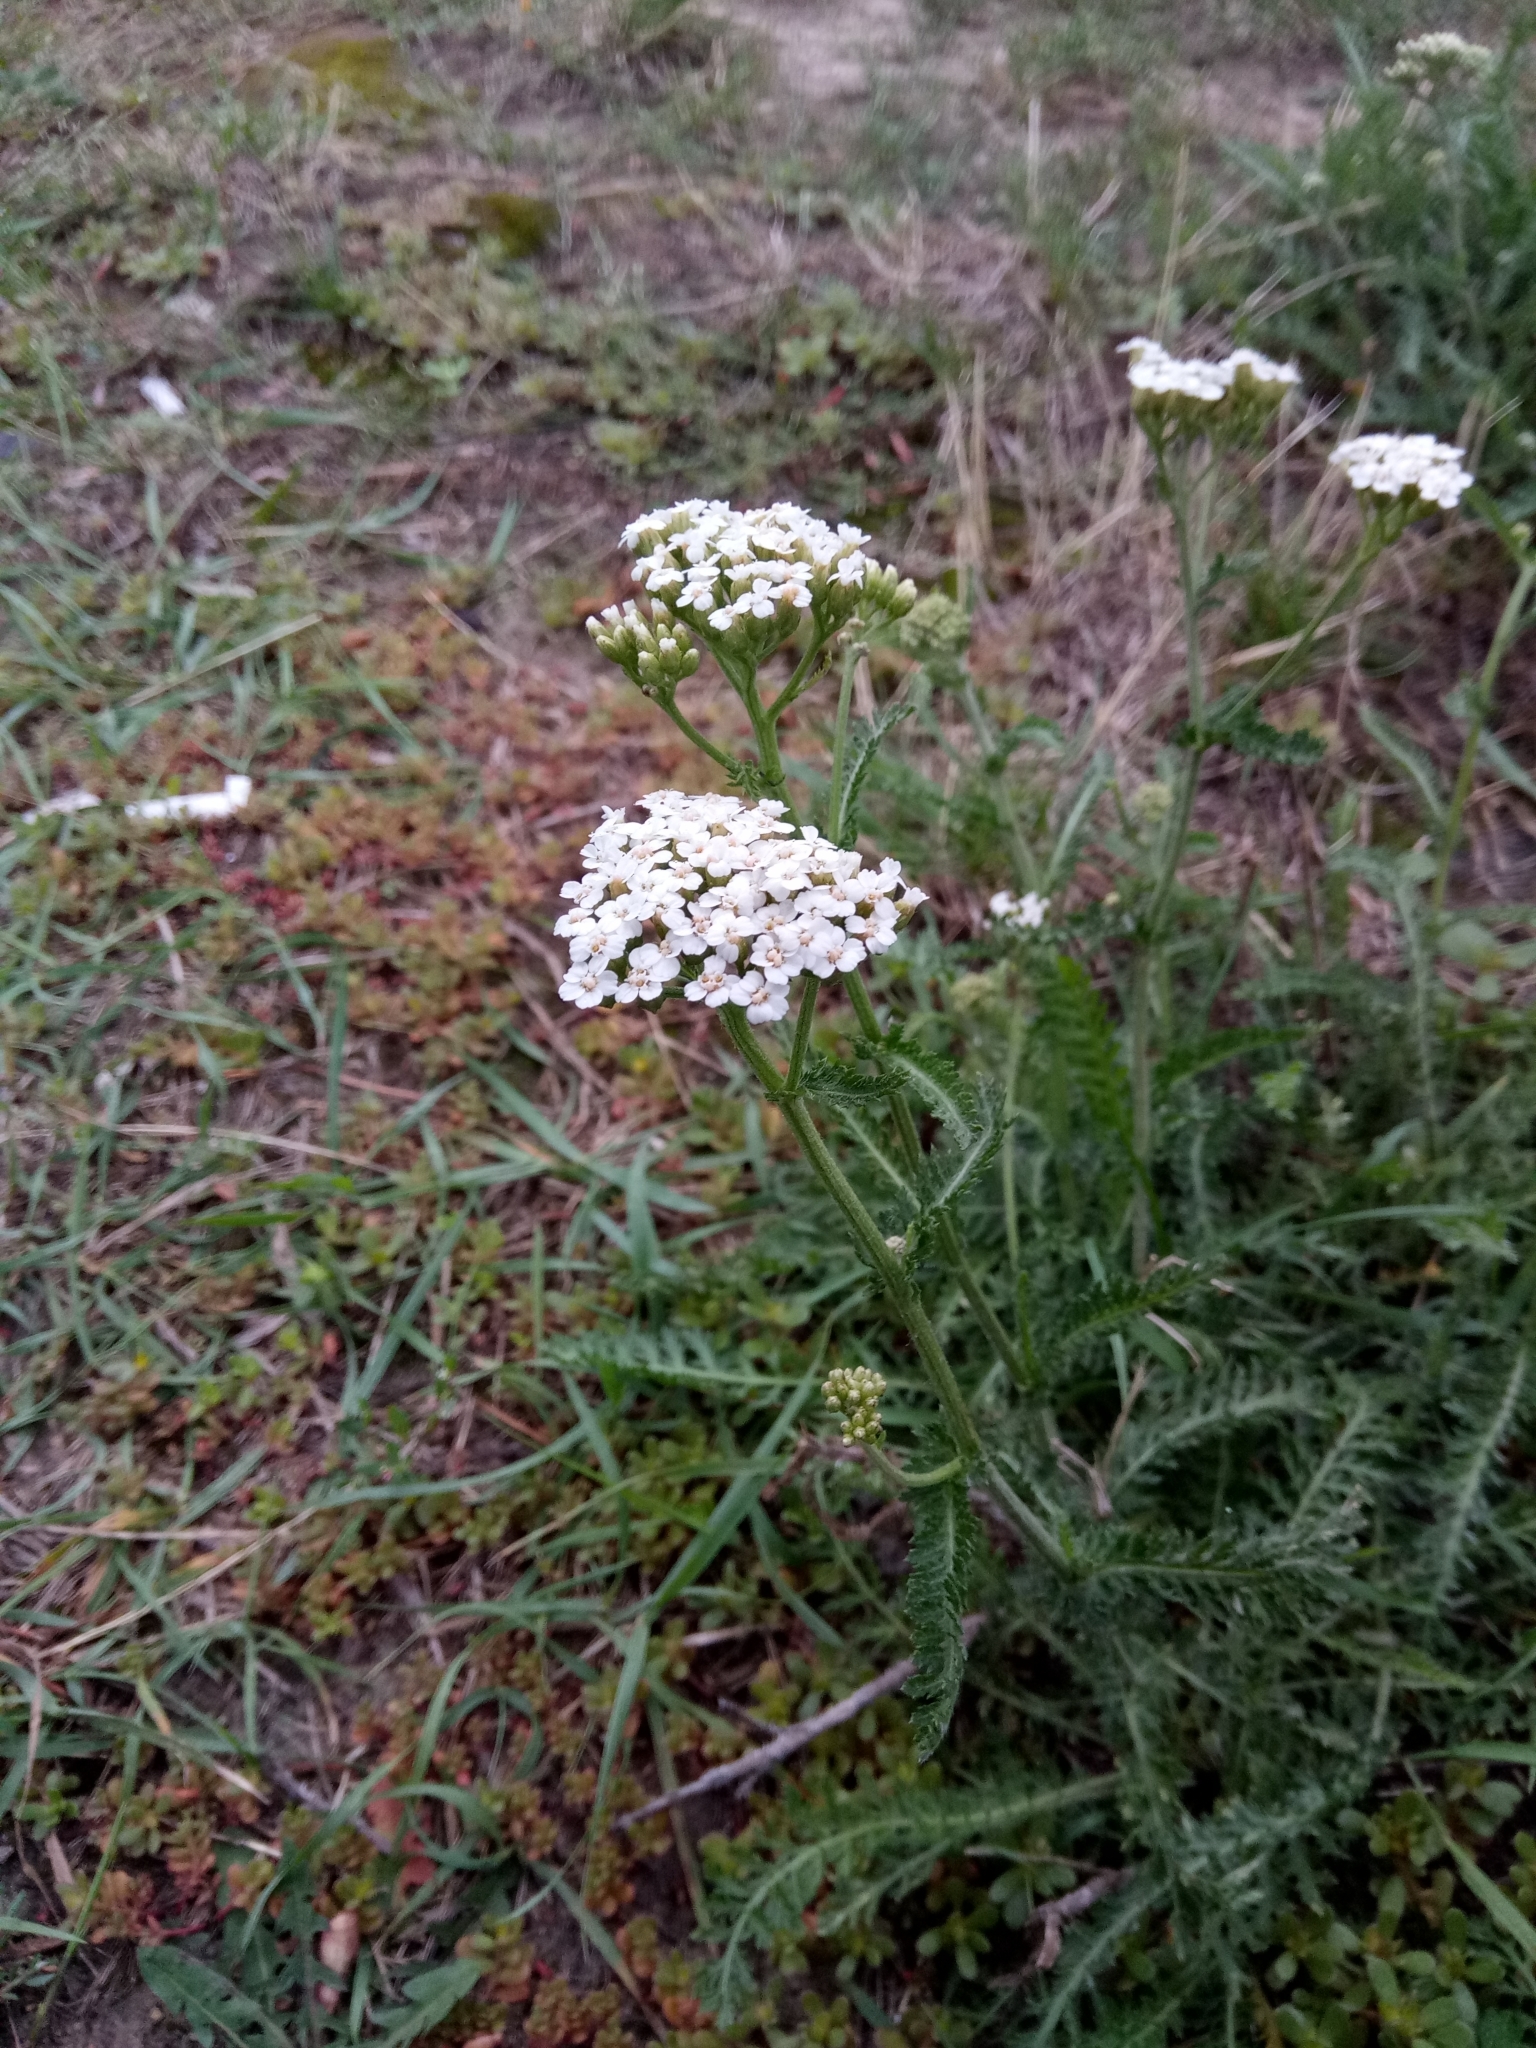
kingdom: Plantae
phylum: Tracheophyta
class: Magnoliopsida
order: Asterales
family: Asteraceae
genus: Achillea
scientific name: Achillea millefolium
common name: Yarrow
